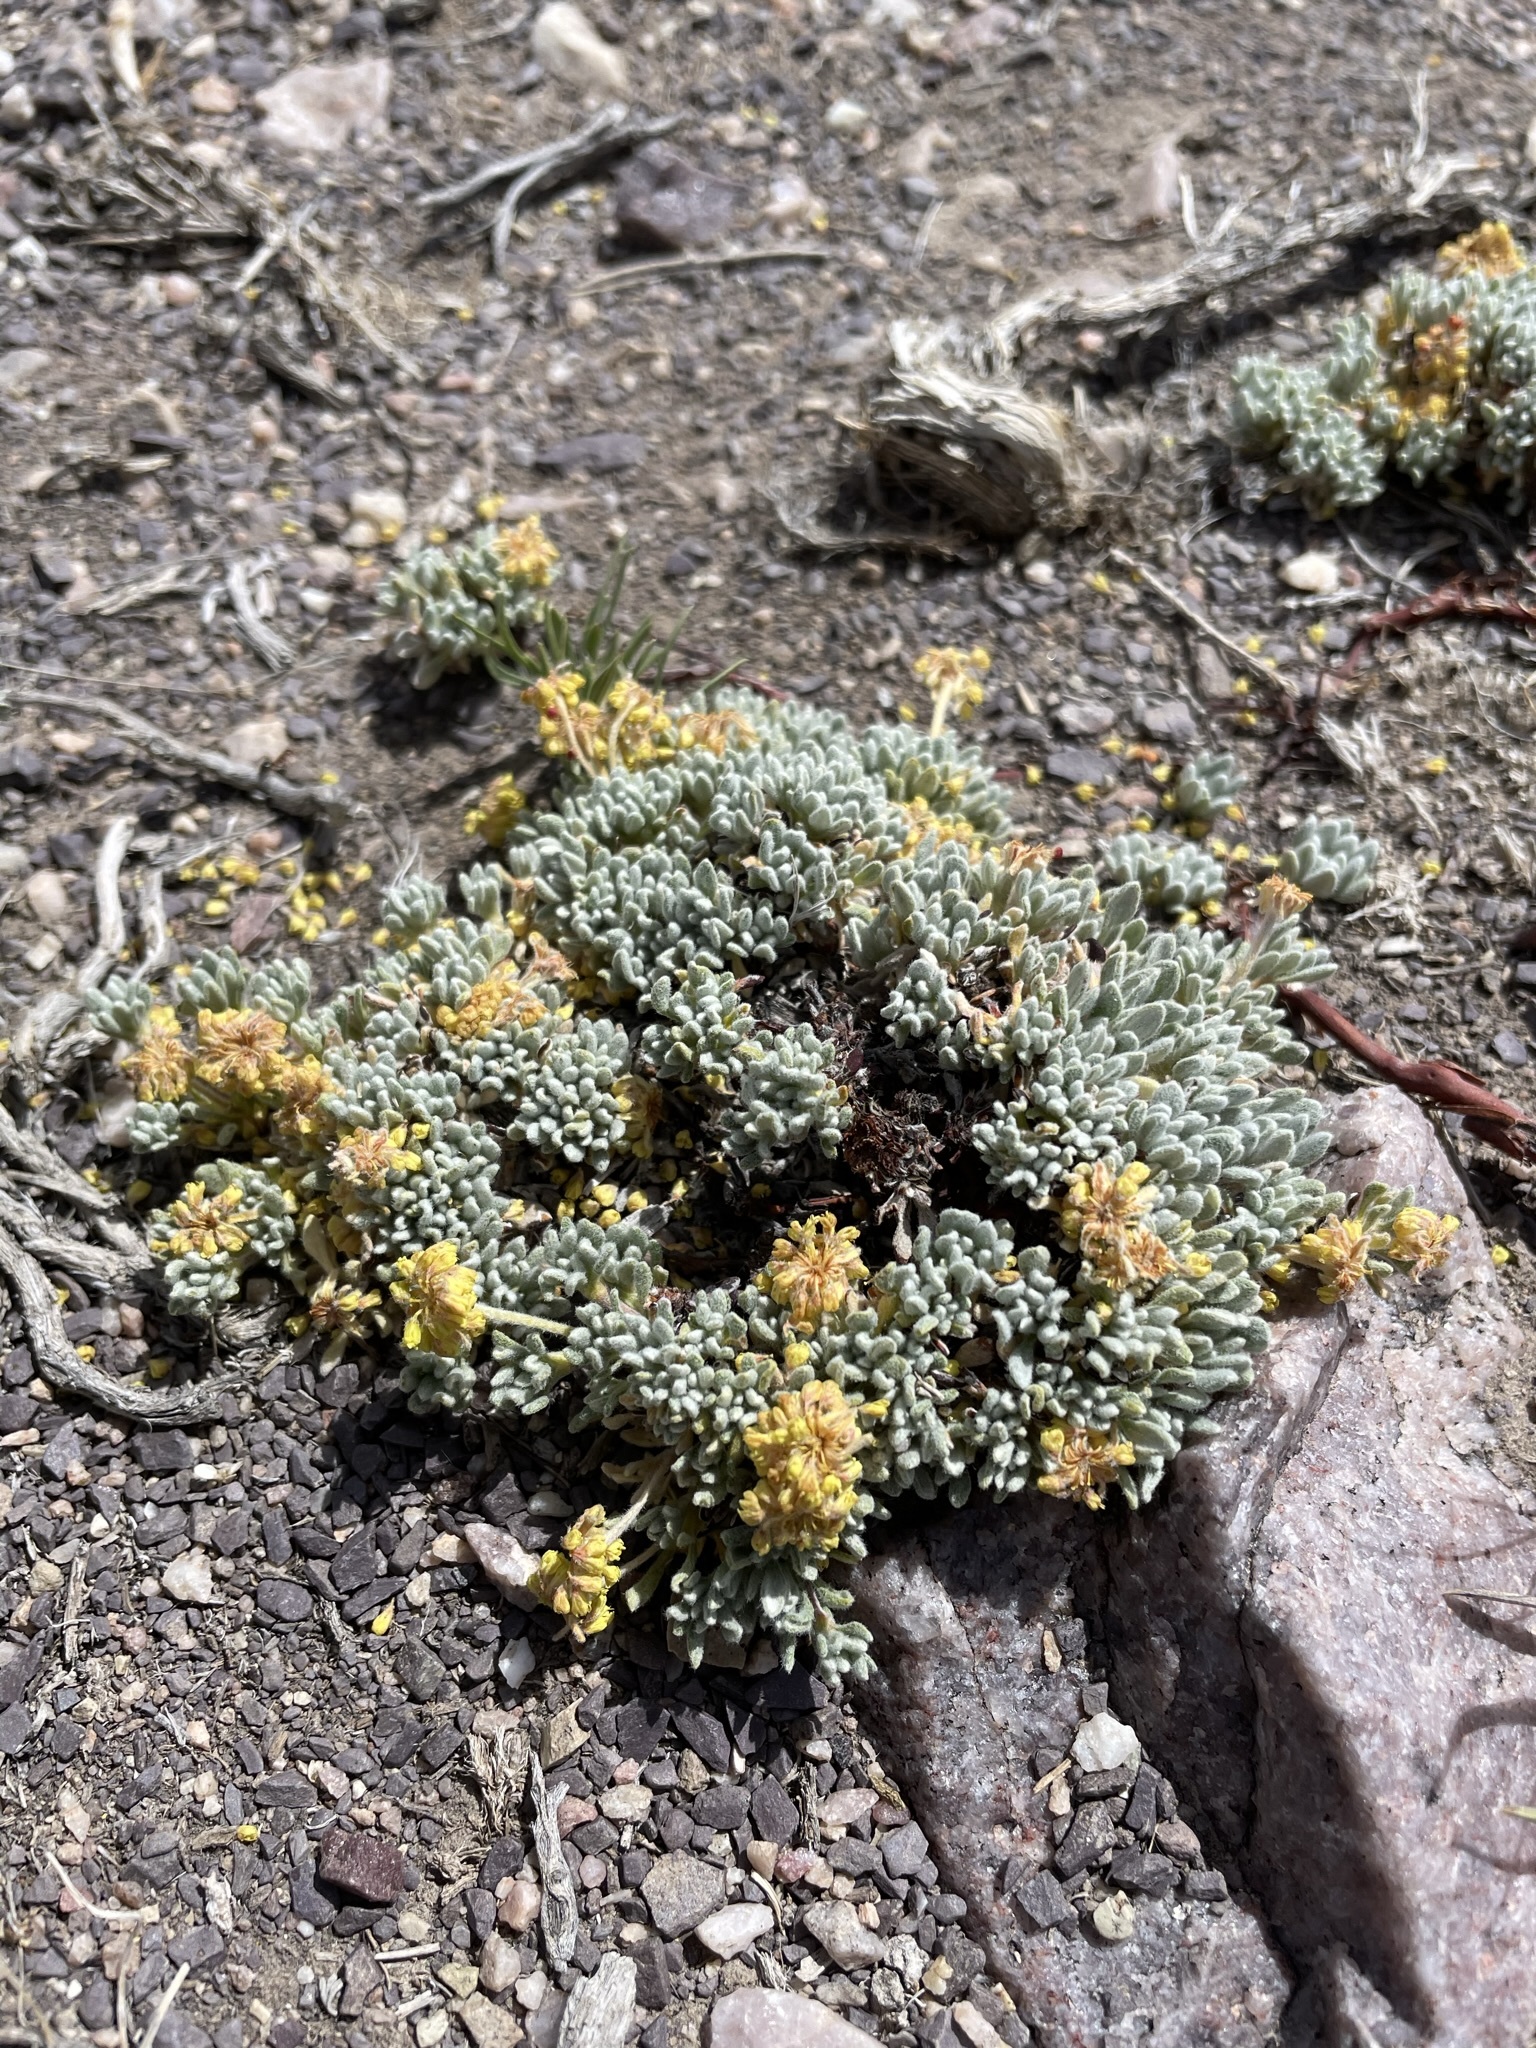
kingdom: Plantae
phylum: Tracheophyta
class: Magnoliopsida
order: Caryophyllales
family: Polygonaceae
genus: Eriogonum
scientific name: Eriogonum caespitosum
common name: Matted wild buckwheat
